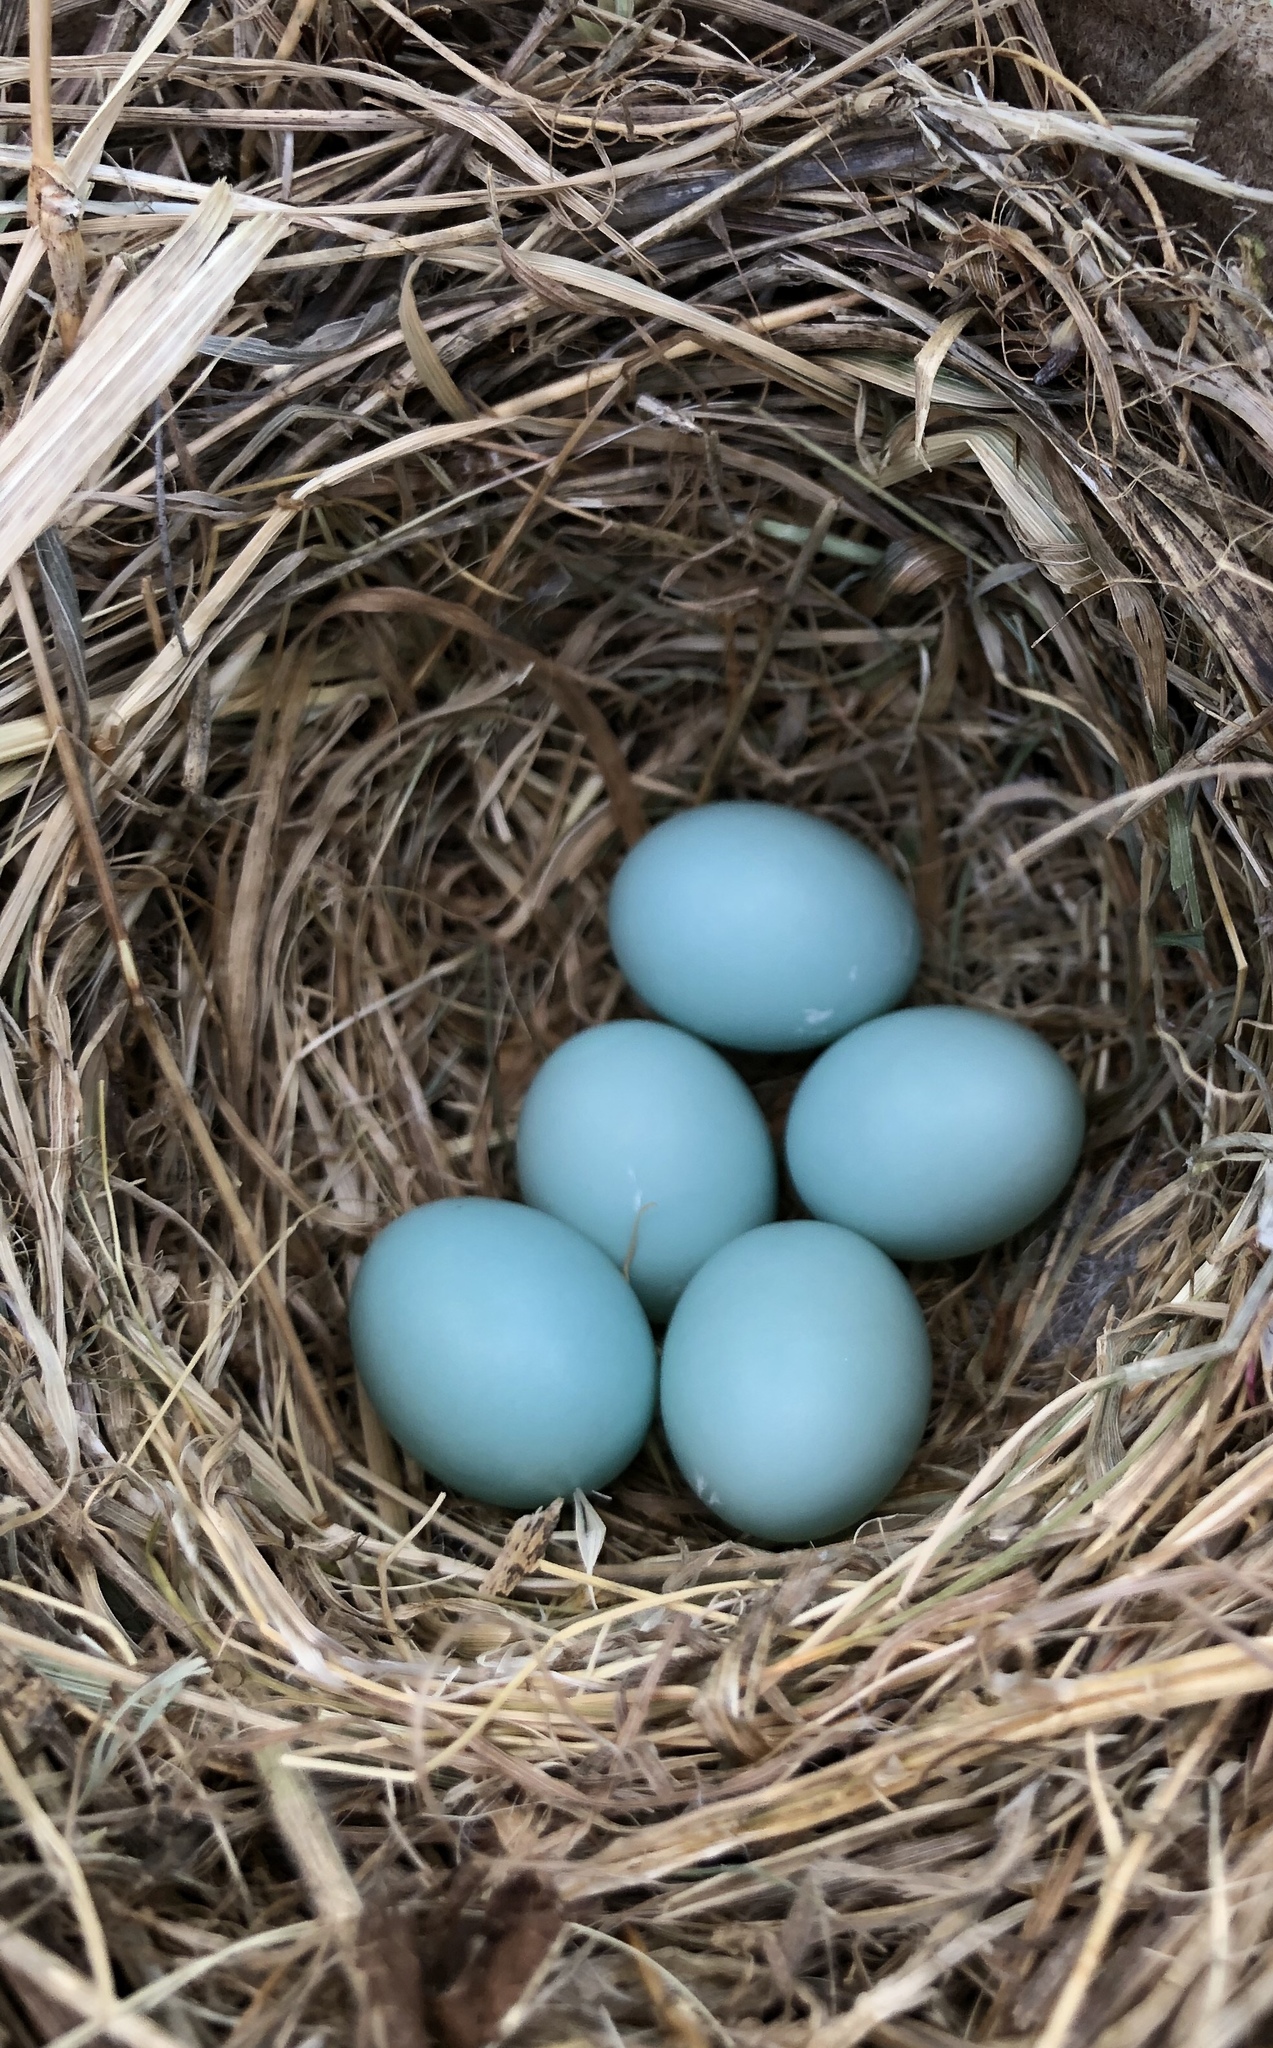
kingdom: Animalia
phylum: Chordata
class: Aves
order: Passeriformes
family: Turdidae
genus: Sialia
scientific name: Sialia sialis
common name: Eastern bluebird
